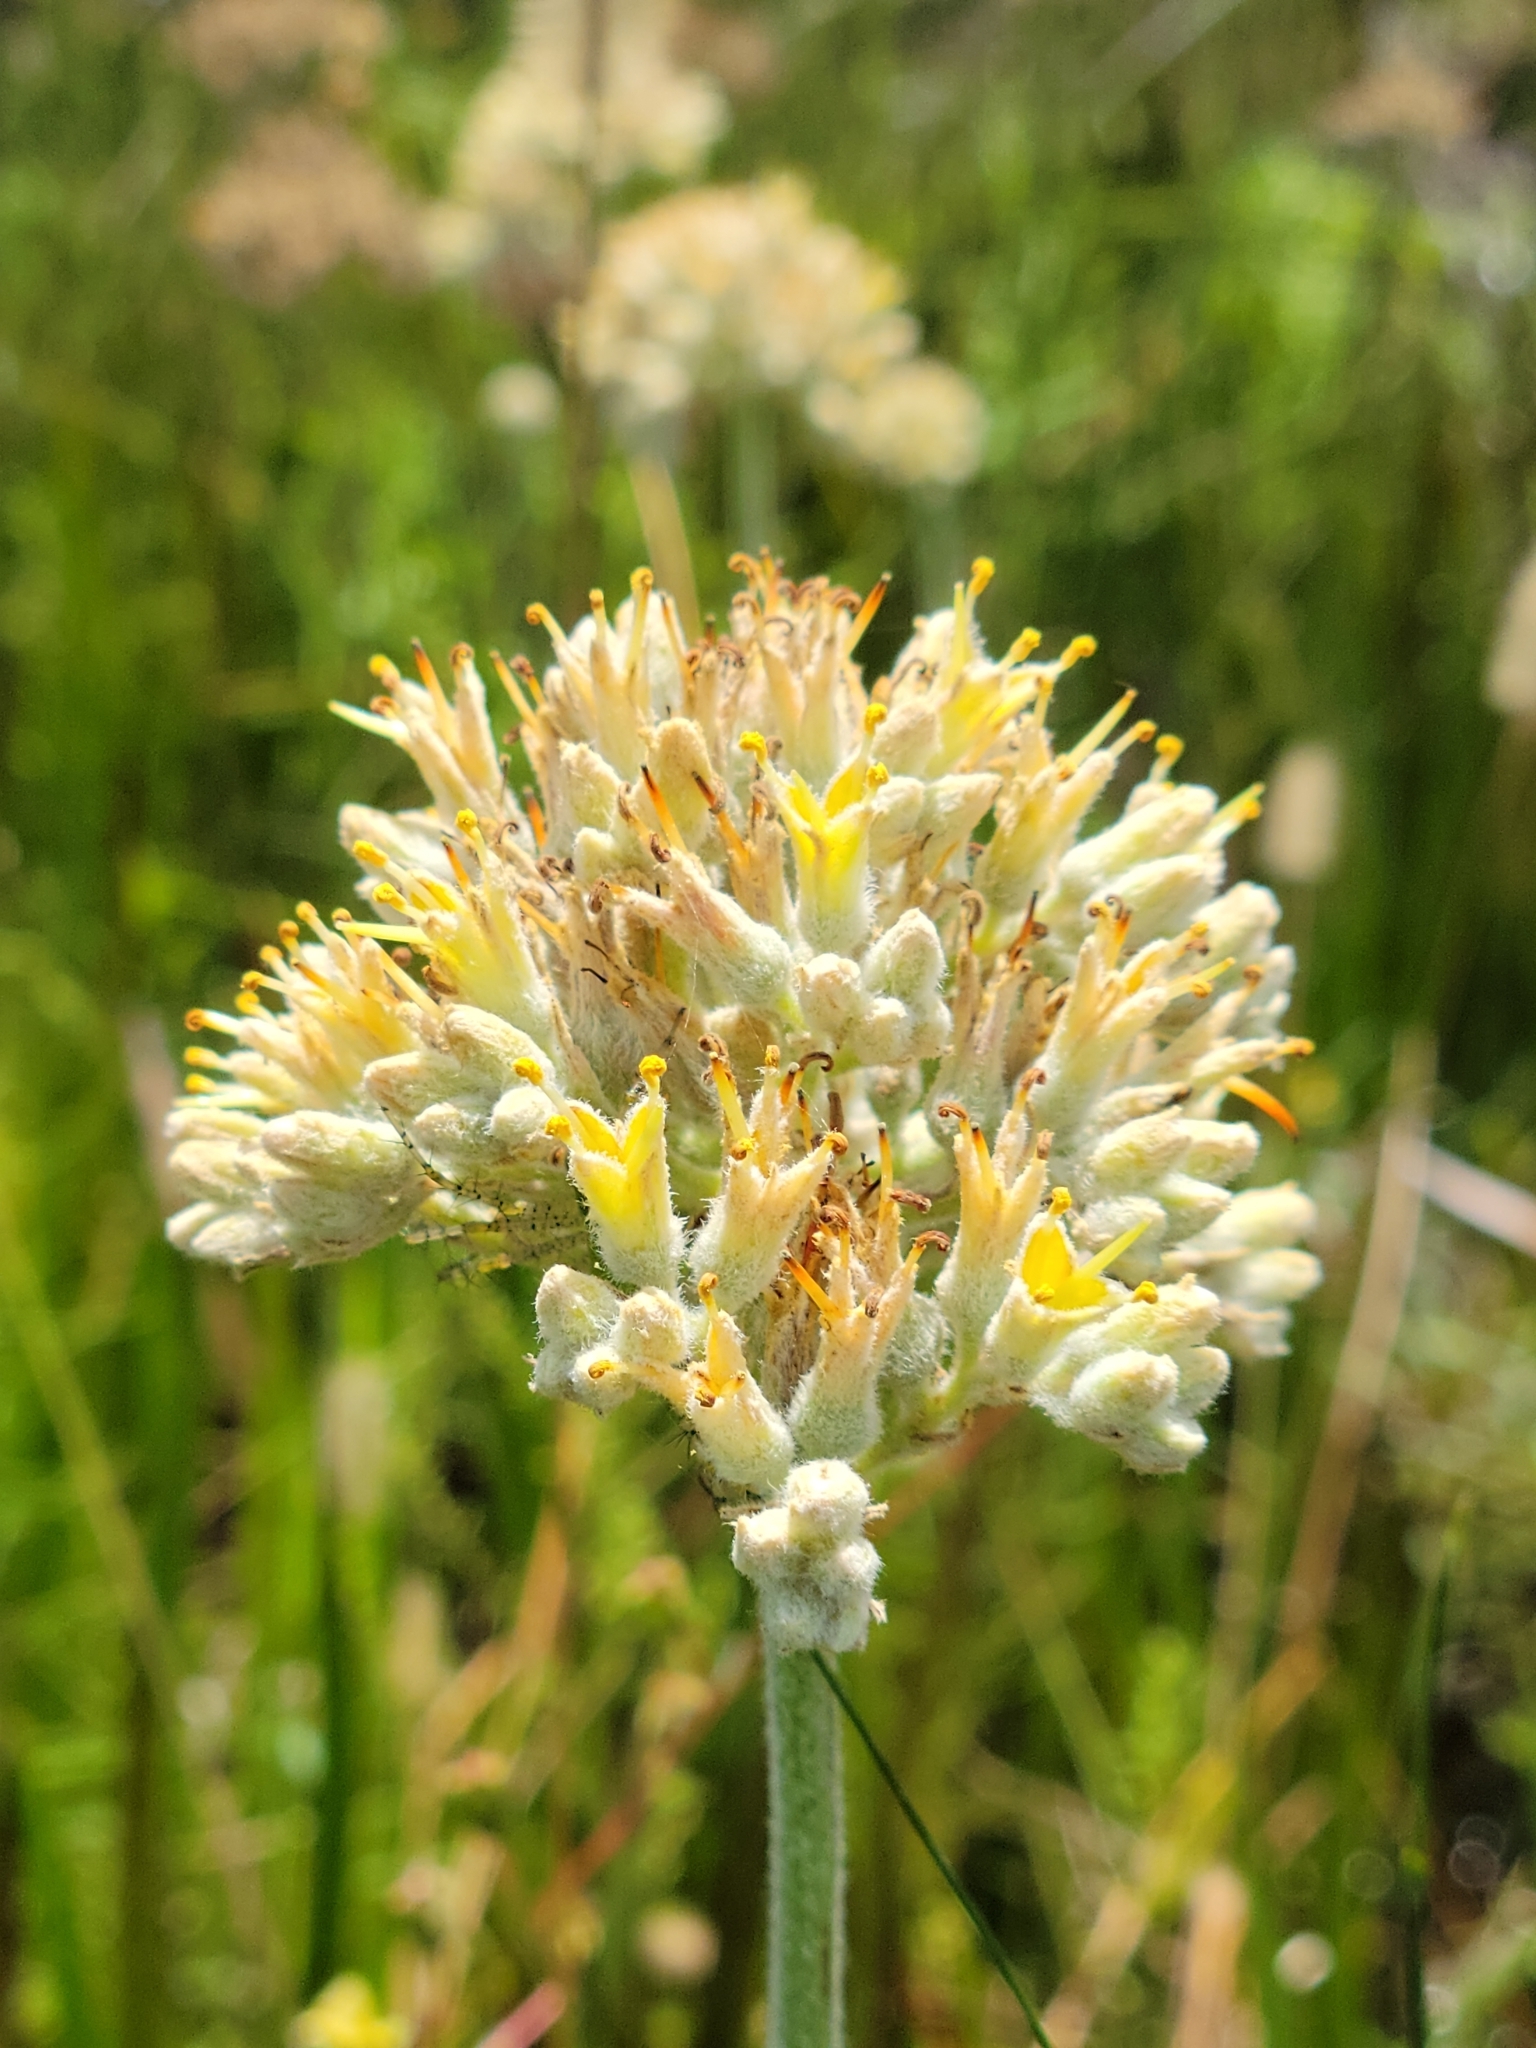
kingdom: Plantae
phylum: Tracheophyta
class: Liliopsida
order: Commelinales
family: Haemodoraceae
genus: Lachnanthes
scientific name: Lachnanthes caroliana
